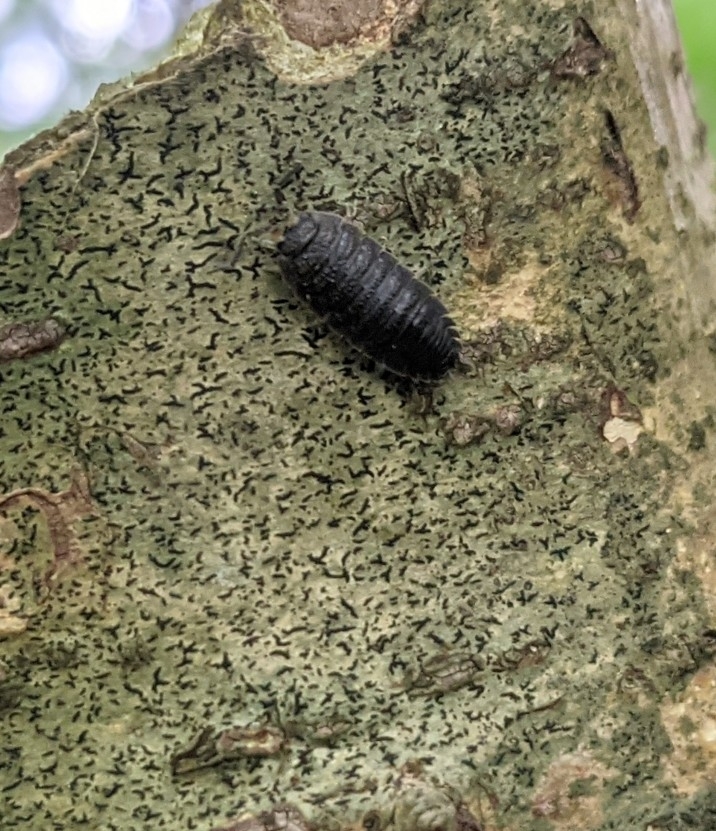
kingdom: Animalia
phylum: Arthropoda
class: Malacostraca
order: Isopoda
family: Porcellionidae
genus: Porcellio
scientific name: Porcellio scaber
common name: Common rough woodlouse
